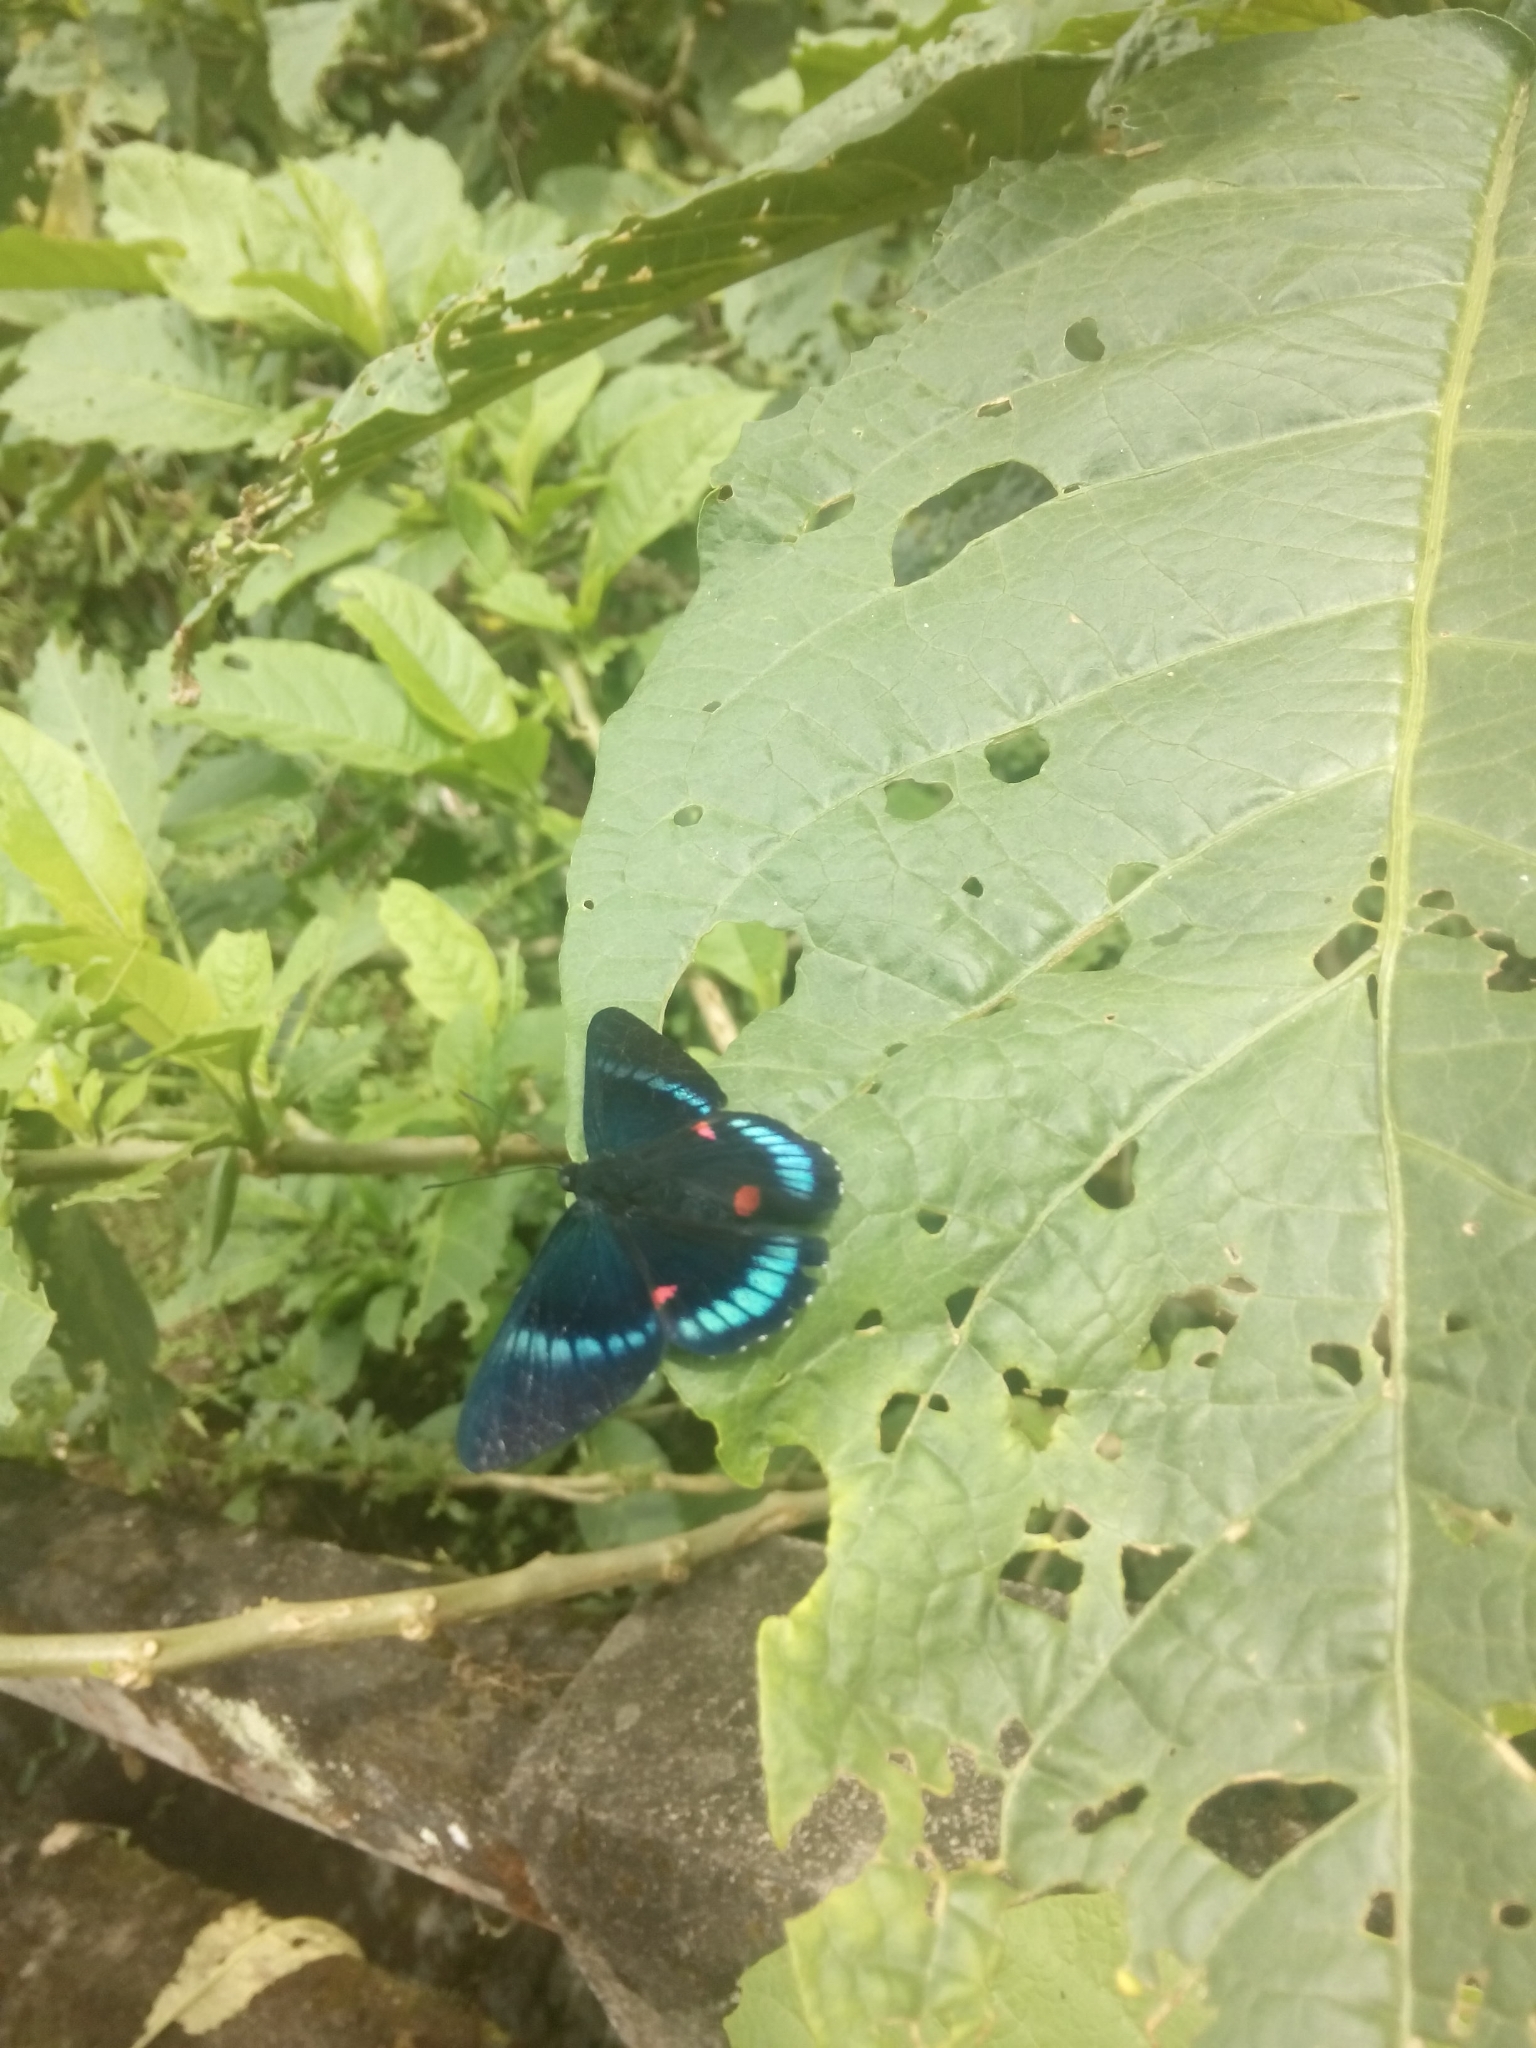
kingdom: Animalia
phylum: Arthropoda
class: Insecta
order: Lepidoptera
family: Lycaenidae
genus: Necyria
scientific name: Necyria bellona
